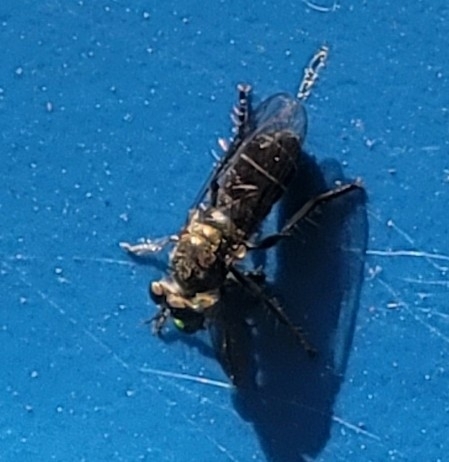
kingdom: Animalia
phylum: Arthropoda
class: Insecta
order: Diptera
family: Asilidae
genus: Atomosia
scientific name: Atomosia puella
